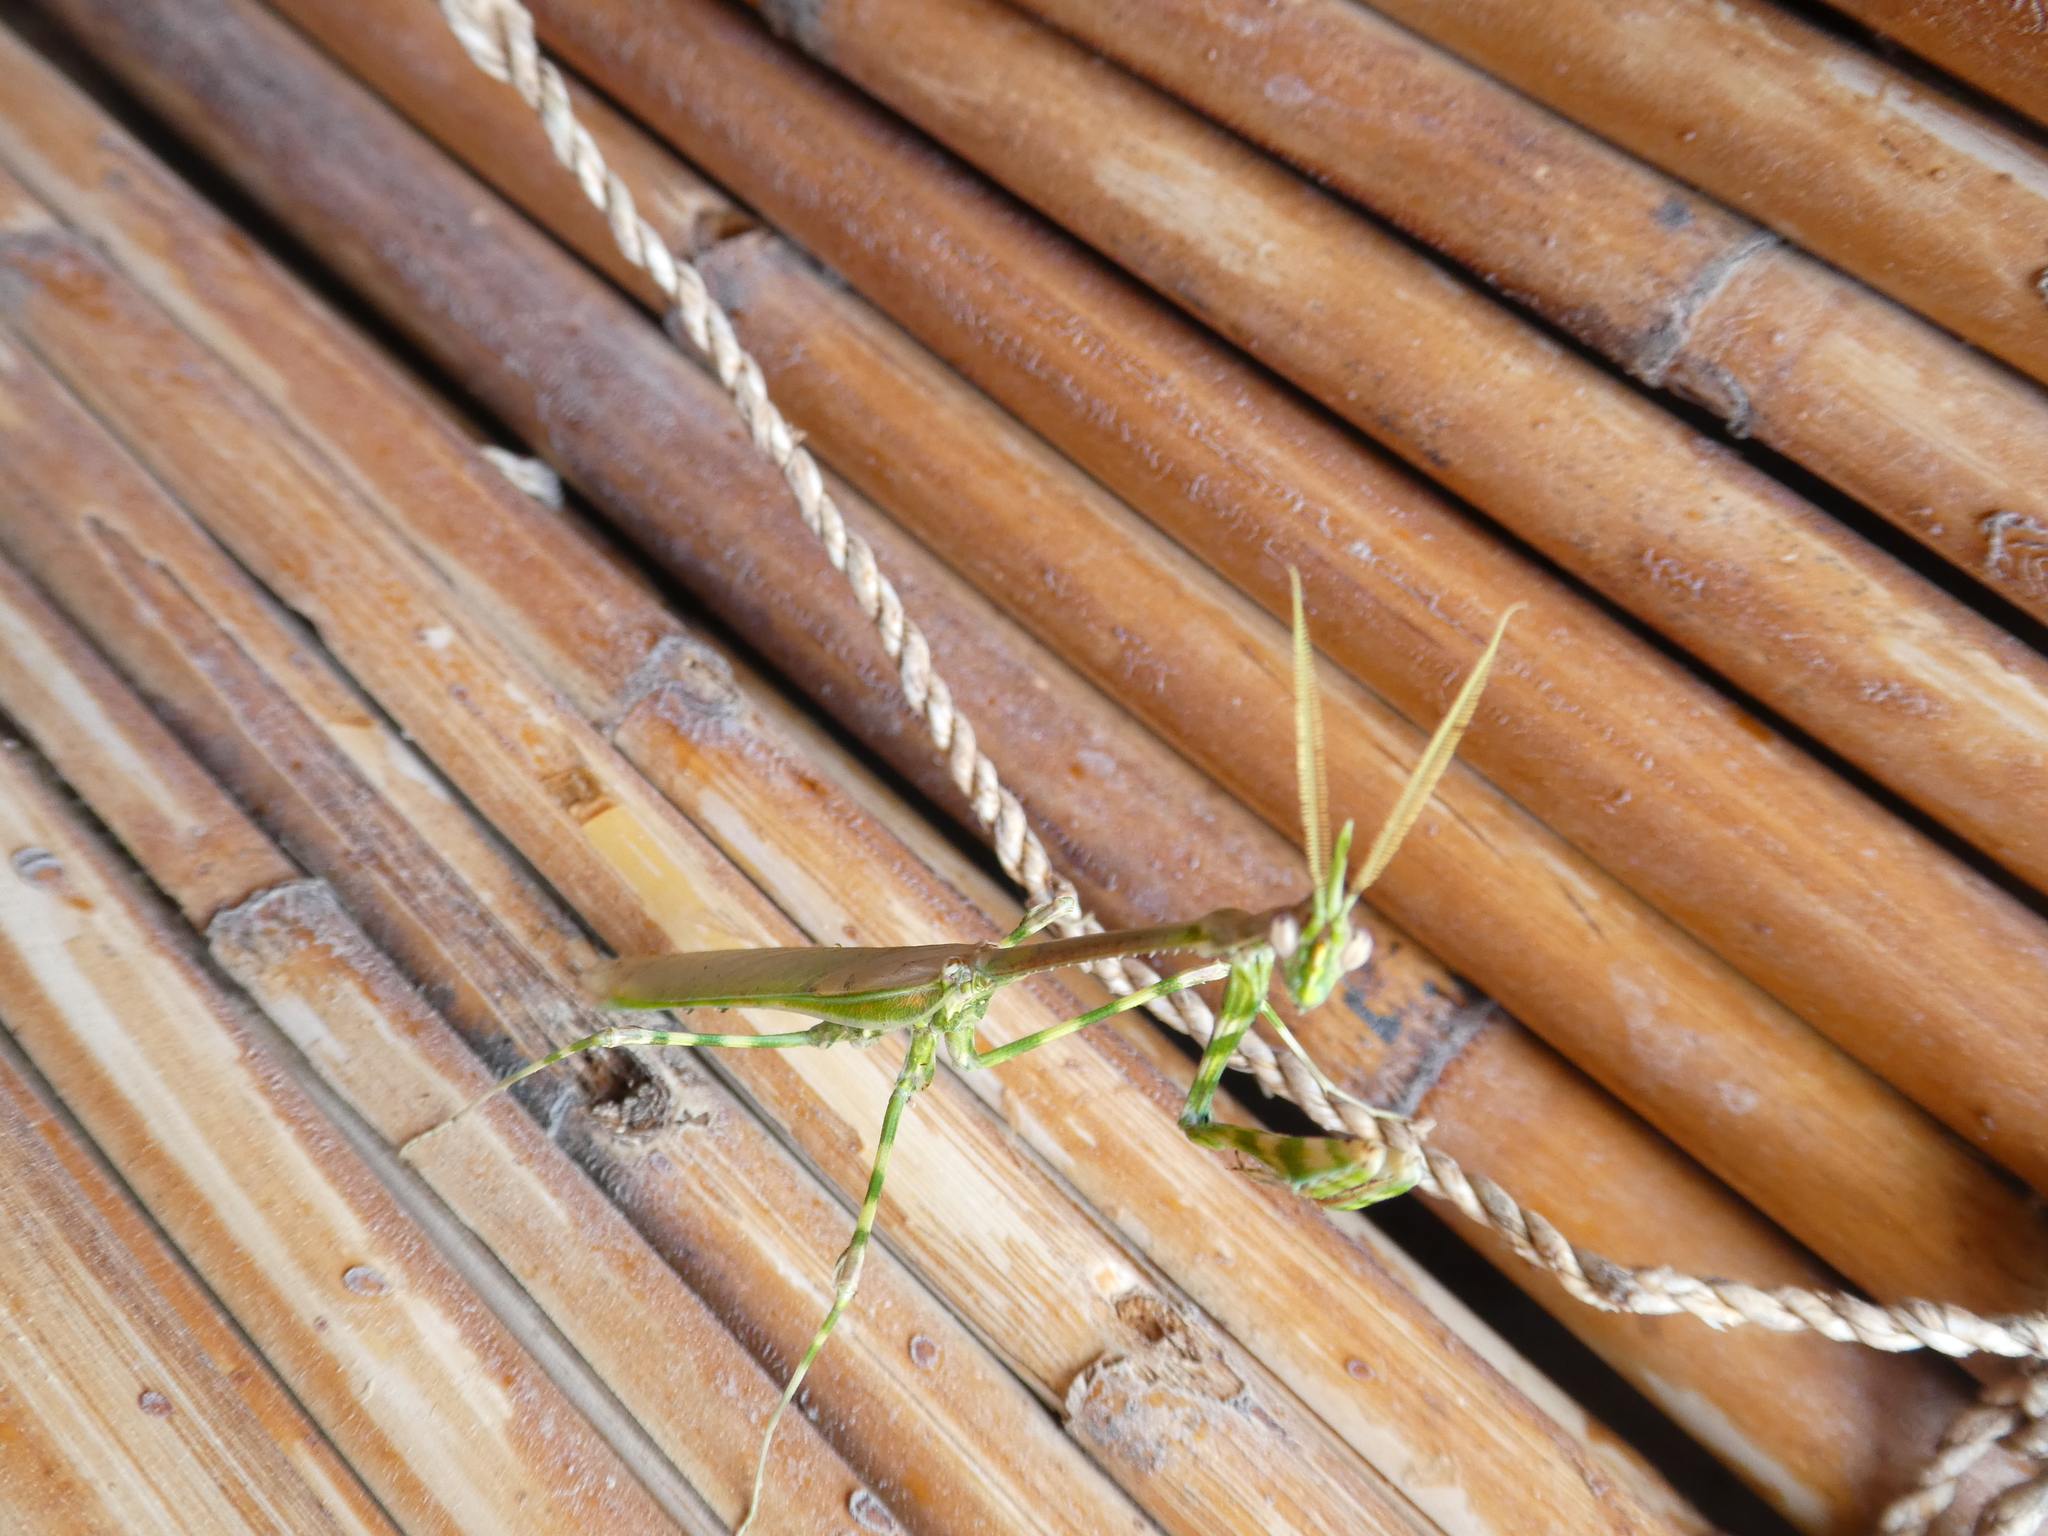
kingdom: Animalia
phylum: Arthropoda
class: Insecta
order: Mantodea
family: Empusidae
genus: Empusa
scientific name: Empusa binotata
